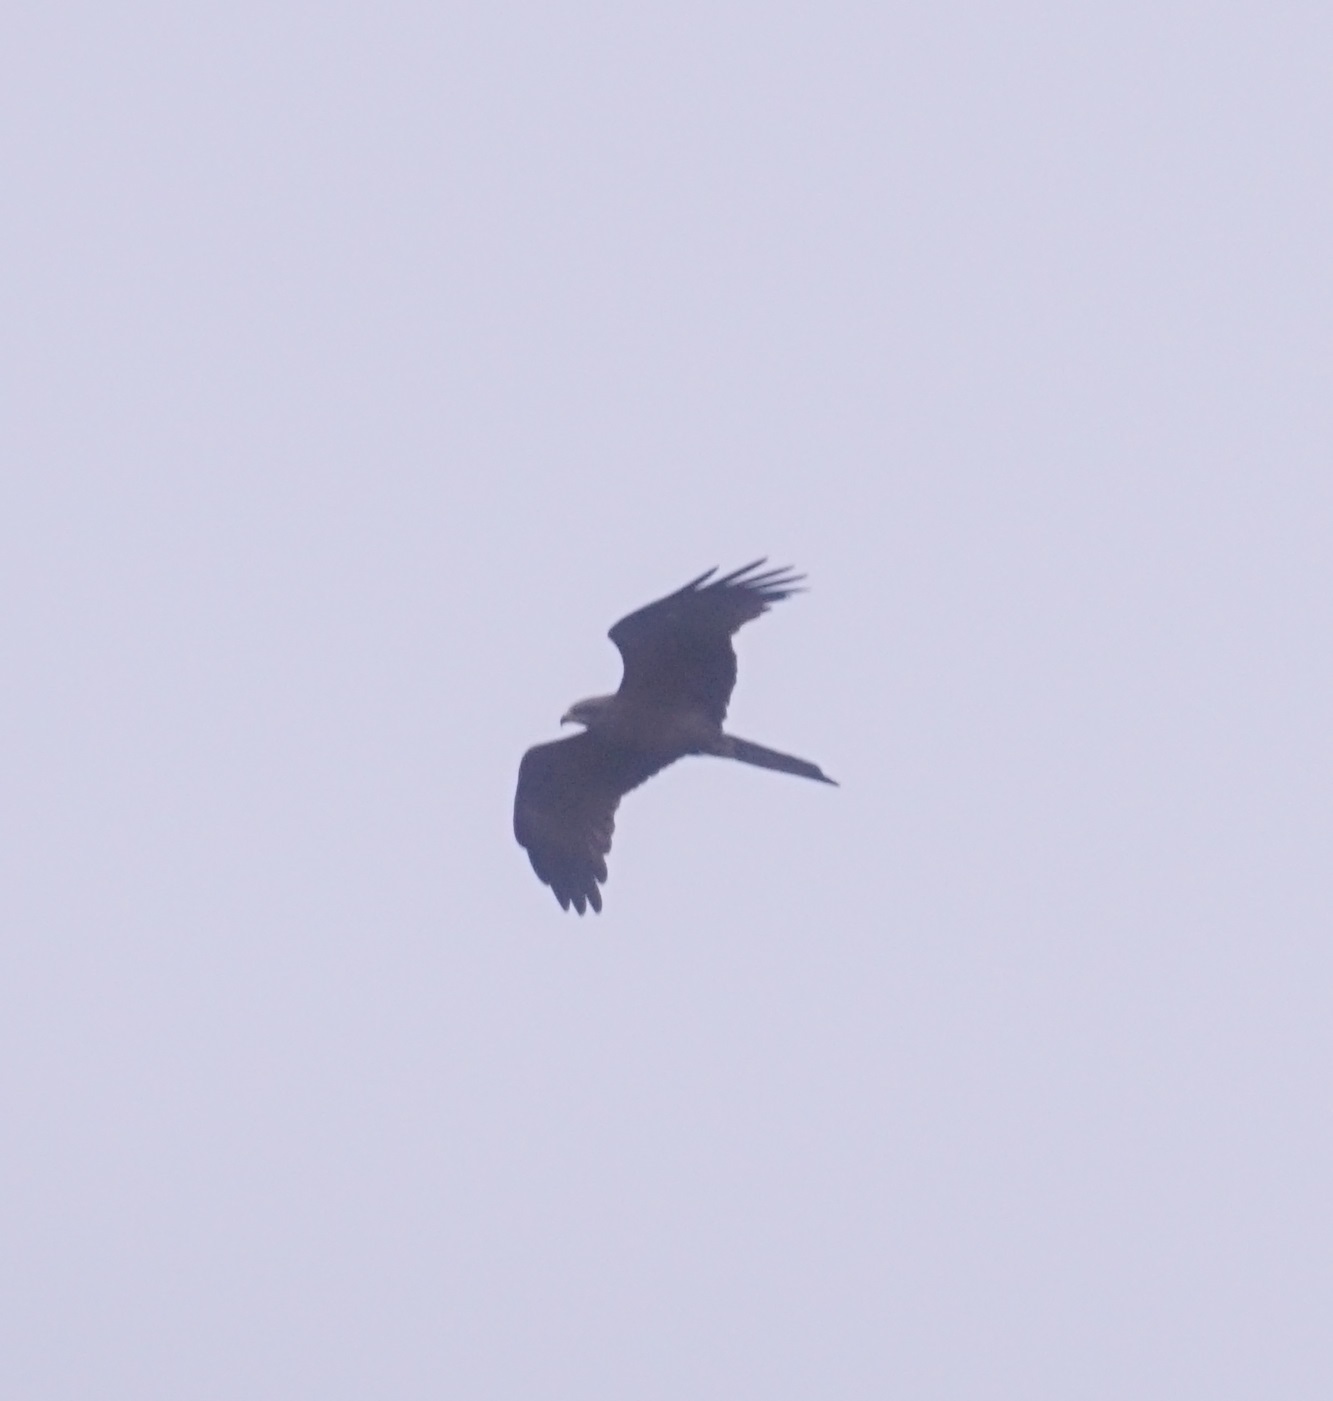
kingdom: Animalia
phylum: Chordata
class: Aves
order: Accipitriformes
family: Accipitridae
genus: Milvus
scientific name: Milvus migrans
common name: Black kite
